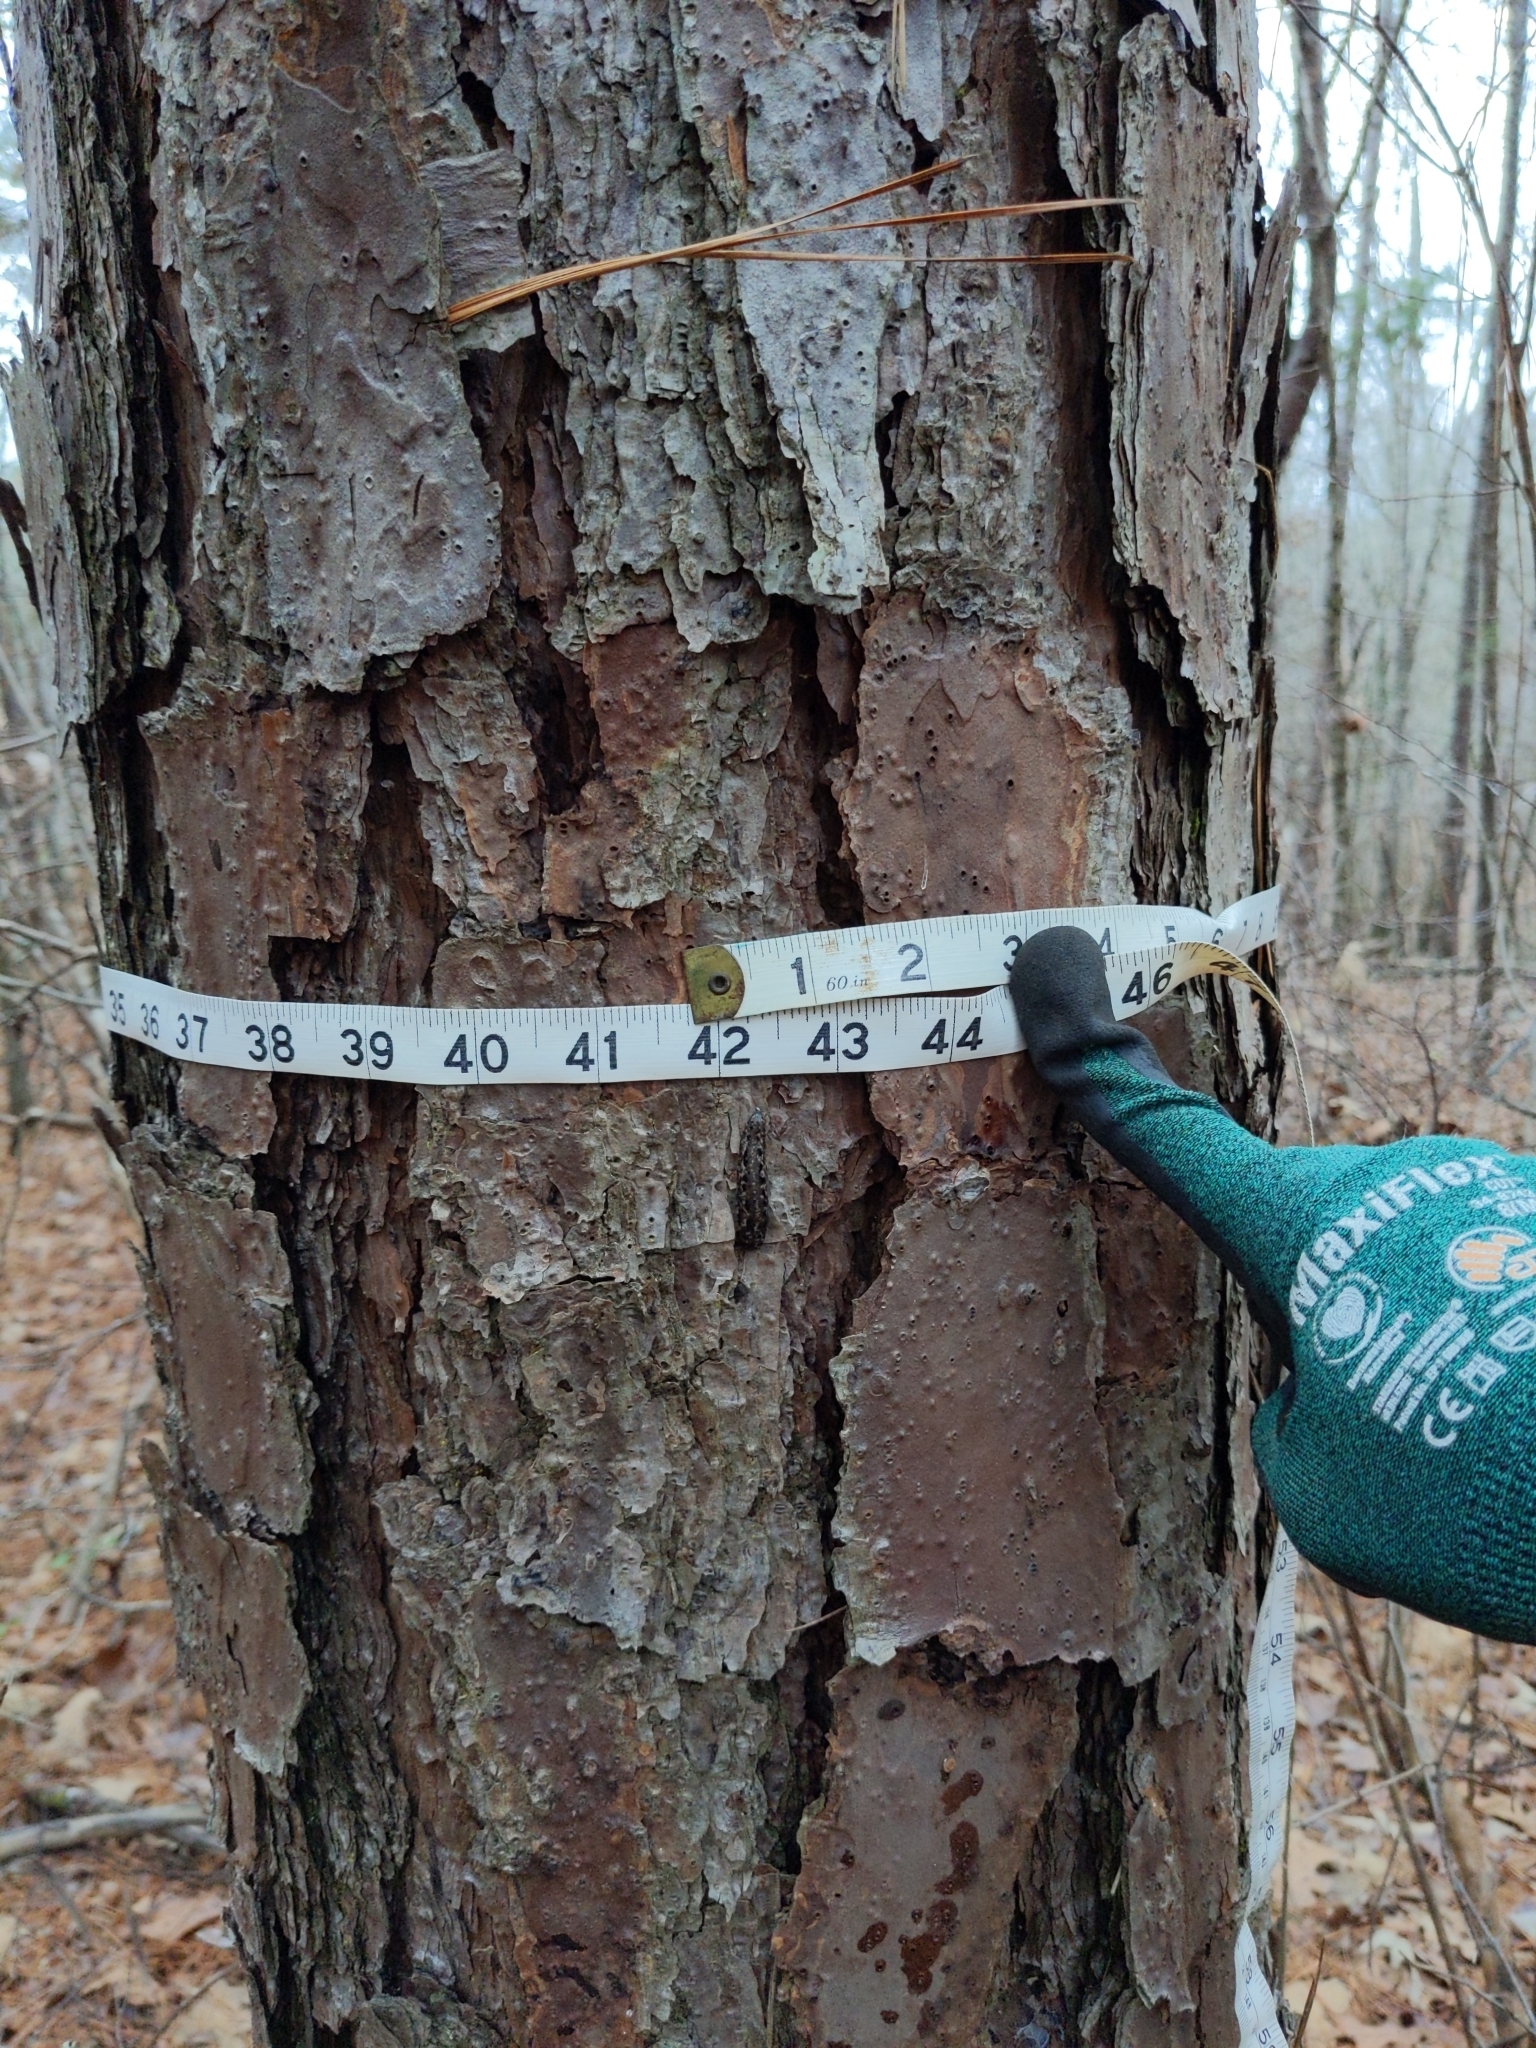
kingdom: Plantae
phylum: Tracheophyta
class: Pinopsida
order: Pinales
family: Pinaceae
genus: Pinus
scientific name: Pinus echinata
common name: Shortleaf pine
